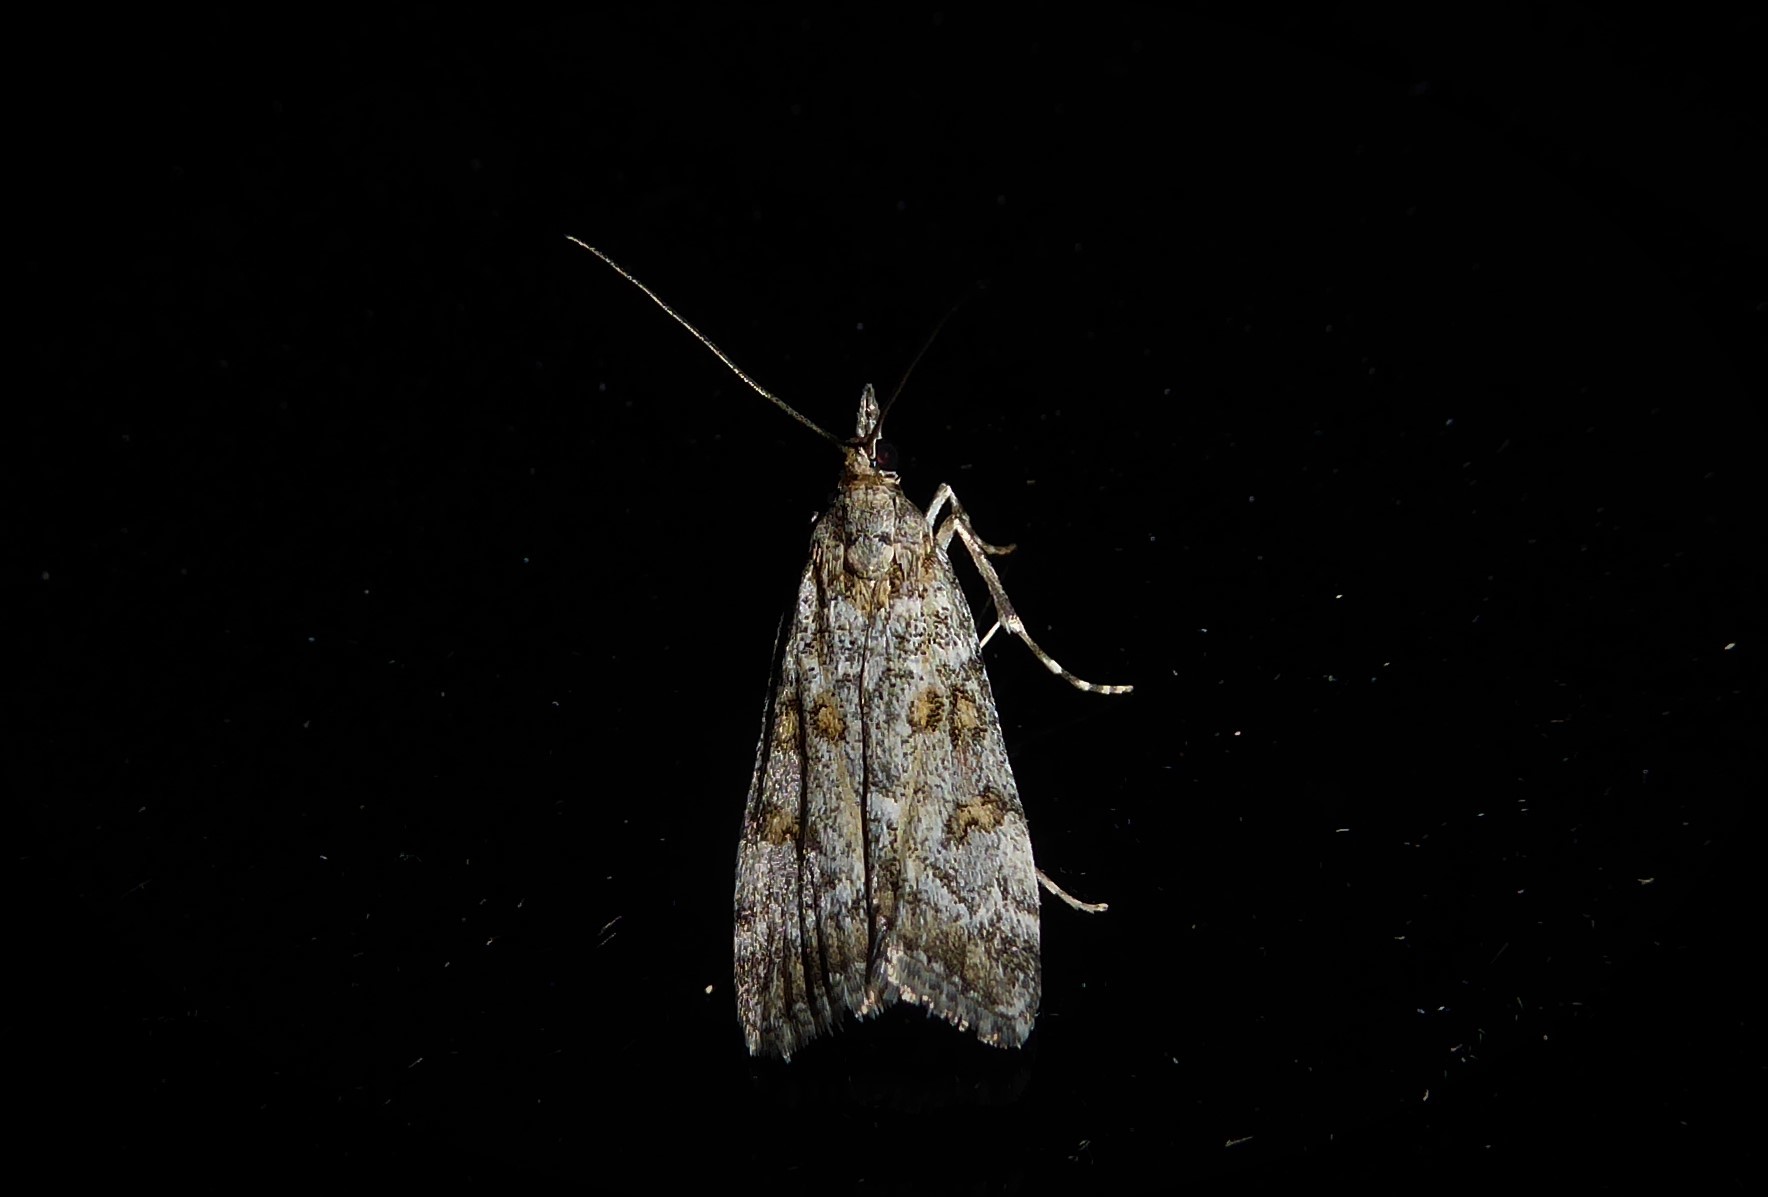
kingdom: Animalia
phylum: Arthropoda
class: Insecta
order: Lepidoptera
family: Crambidae
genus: Eudonia
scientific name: Eudonia diphtheralis
